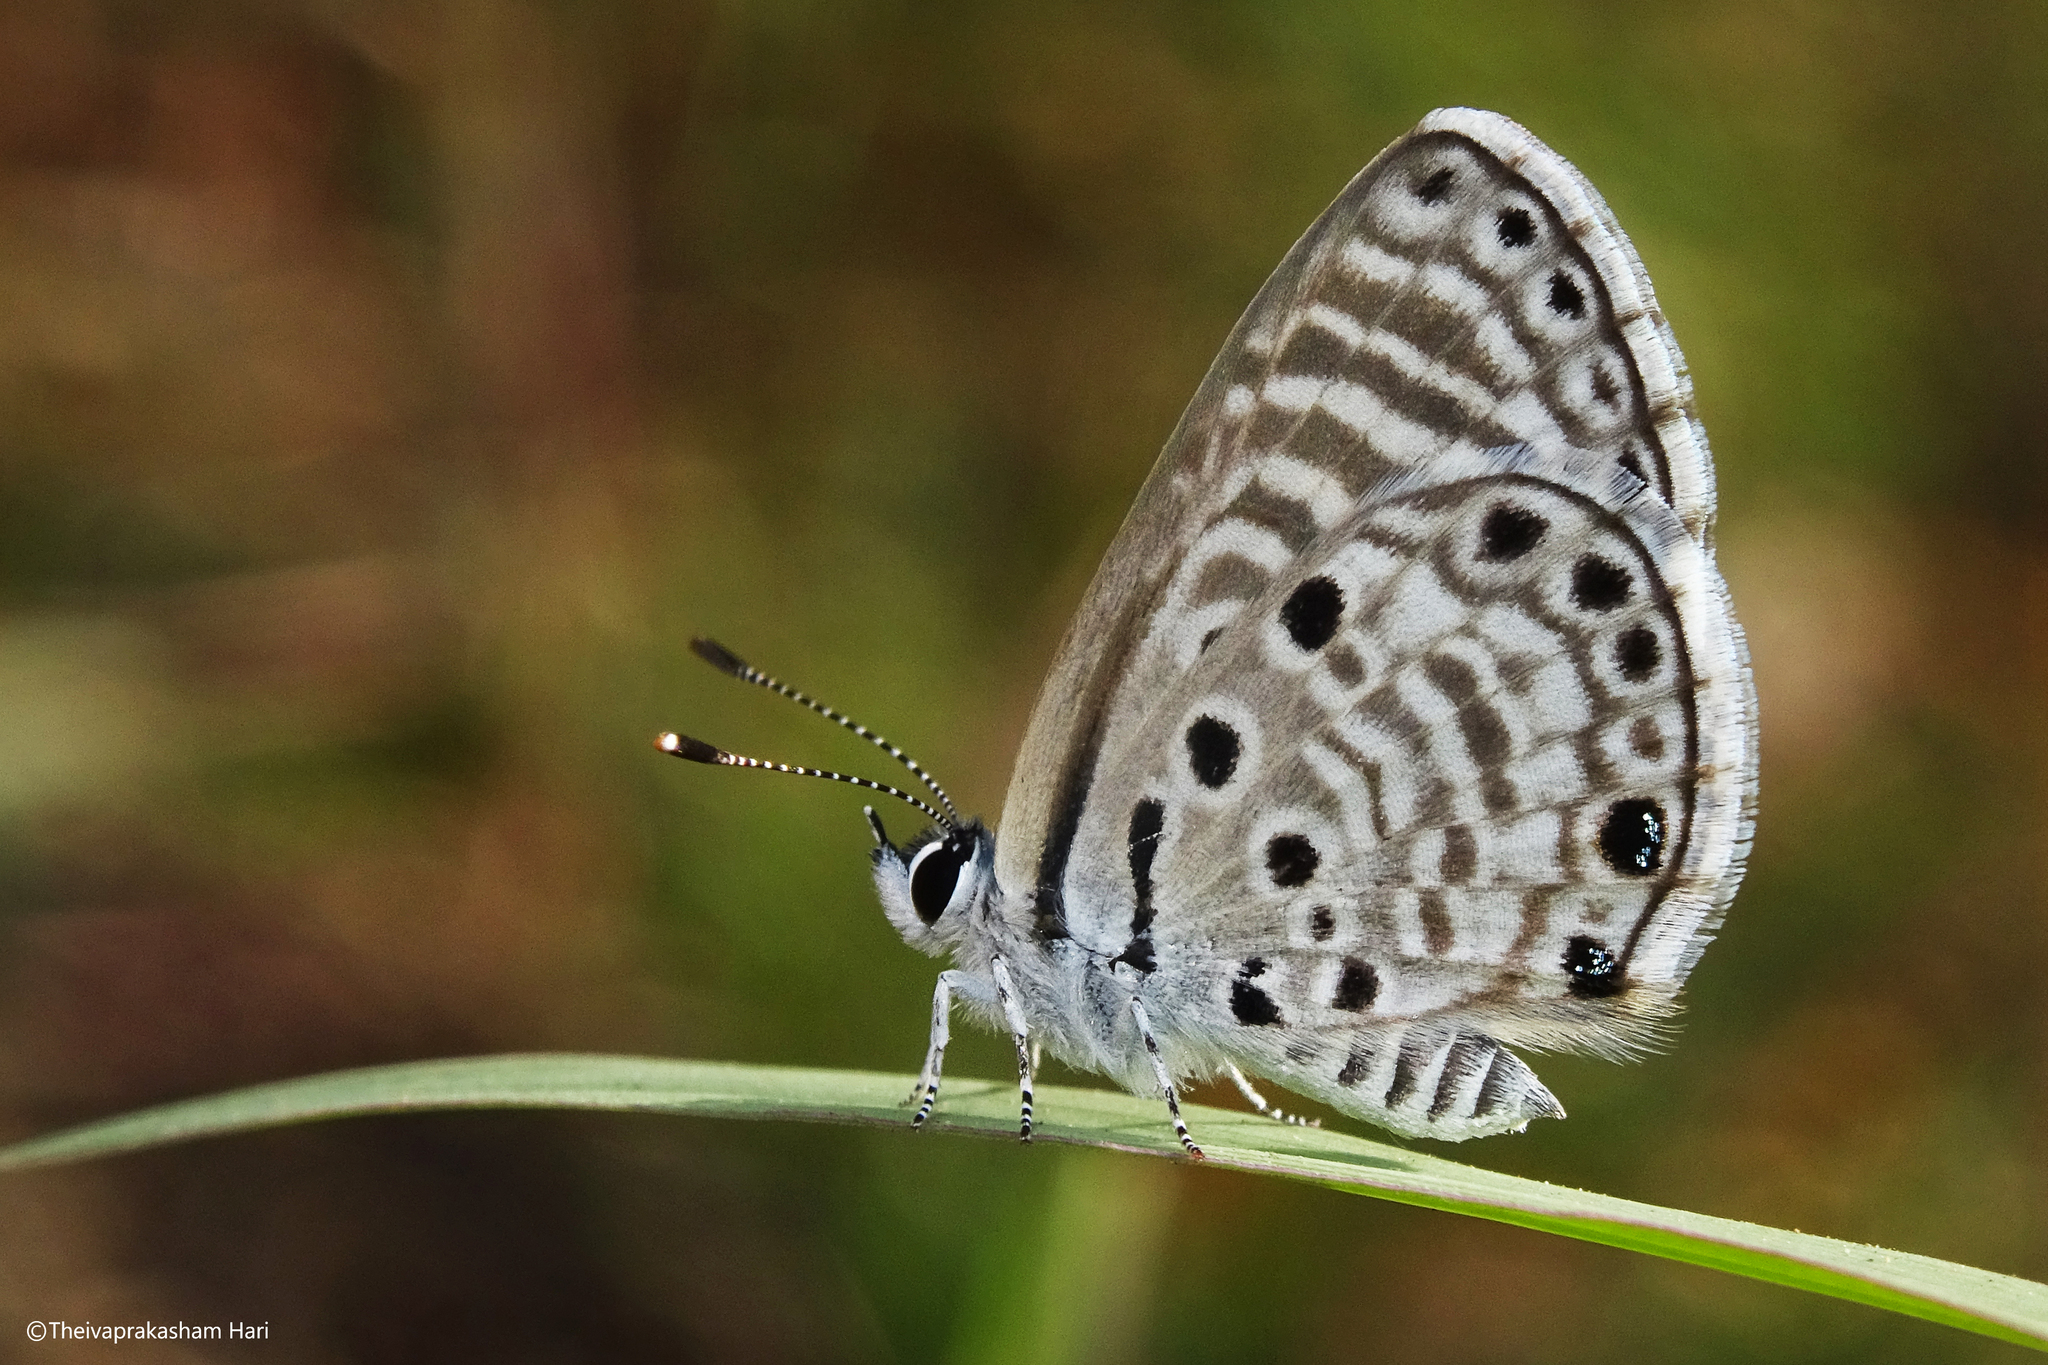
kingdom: Animalia
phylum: Arthropoda
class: Insecta
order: Lepidoptera
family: Lycaenidae
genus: Azanus
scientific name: Azanus jesous
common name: African babul blue
